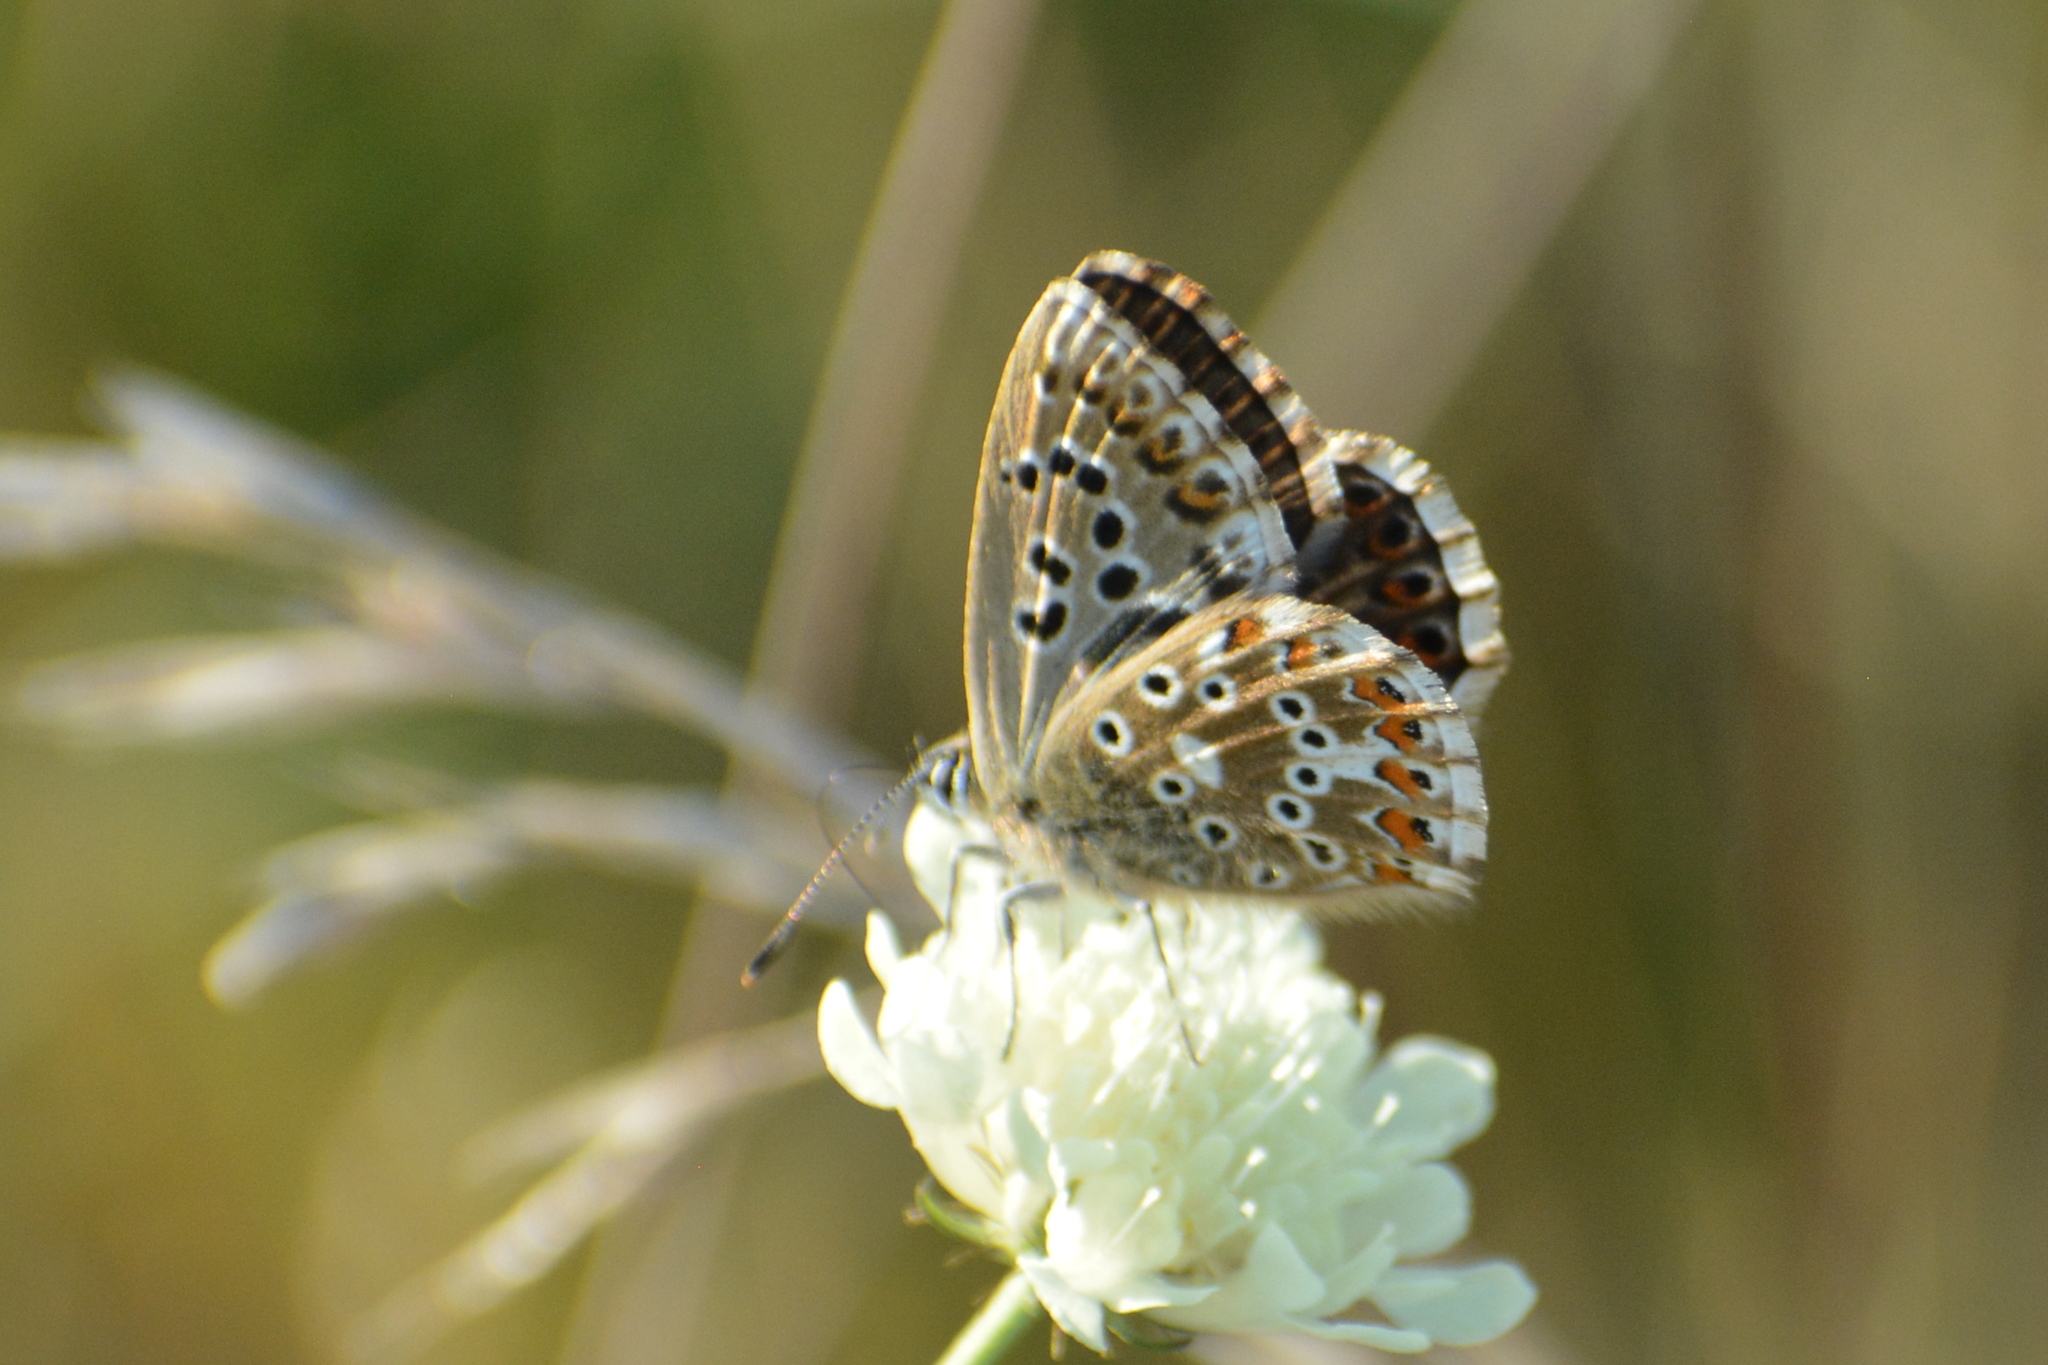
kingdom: Animalia
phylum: Arthropoda
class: Insecta
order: Lepidoptera
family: Lycaenidae
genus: Lysandra
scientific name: Lysandra coridon
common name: Chalkhill blue
